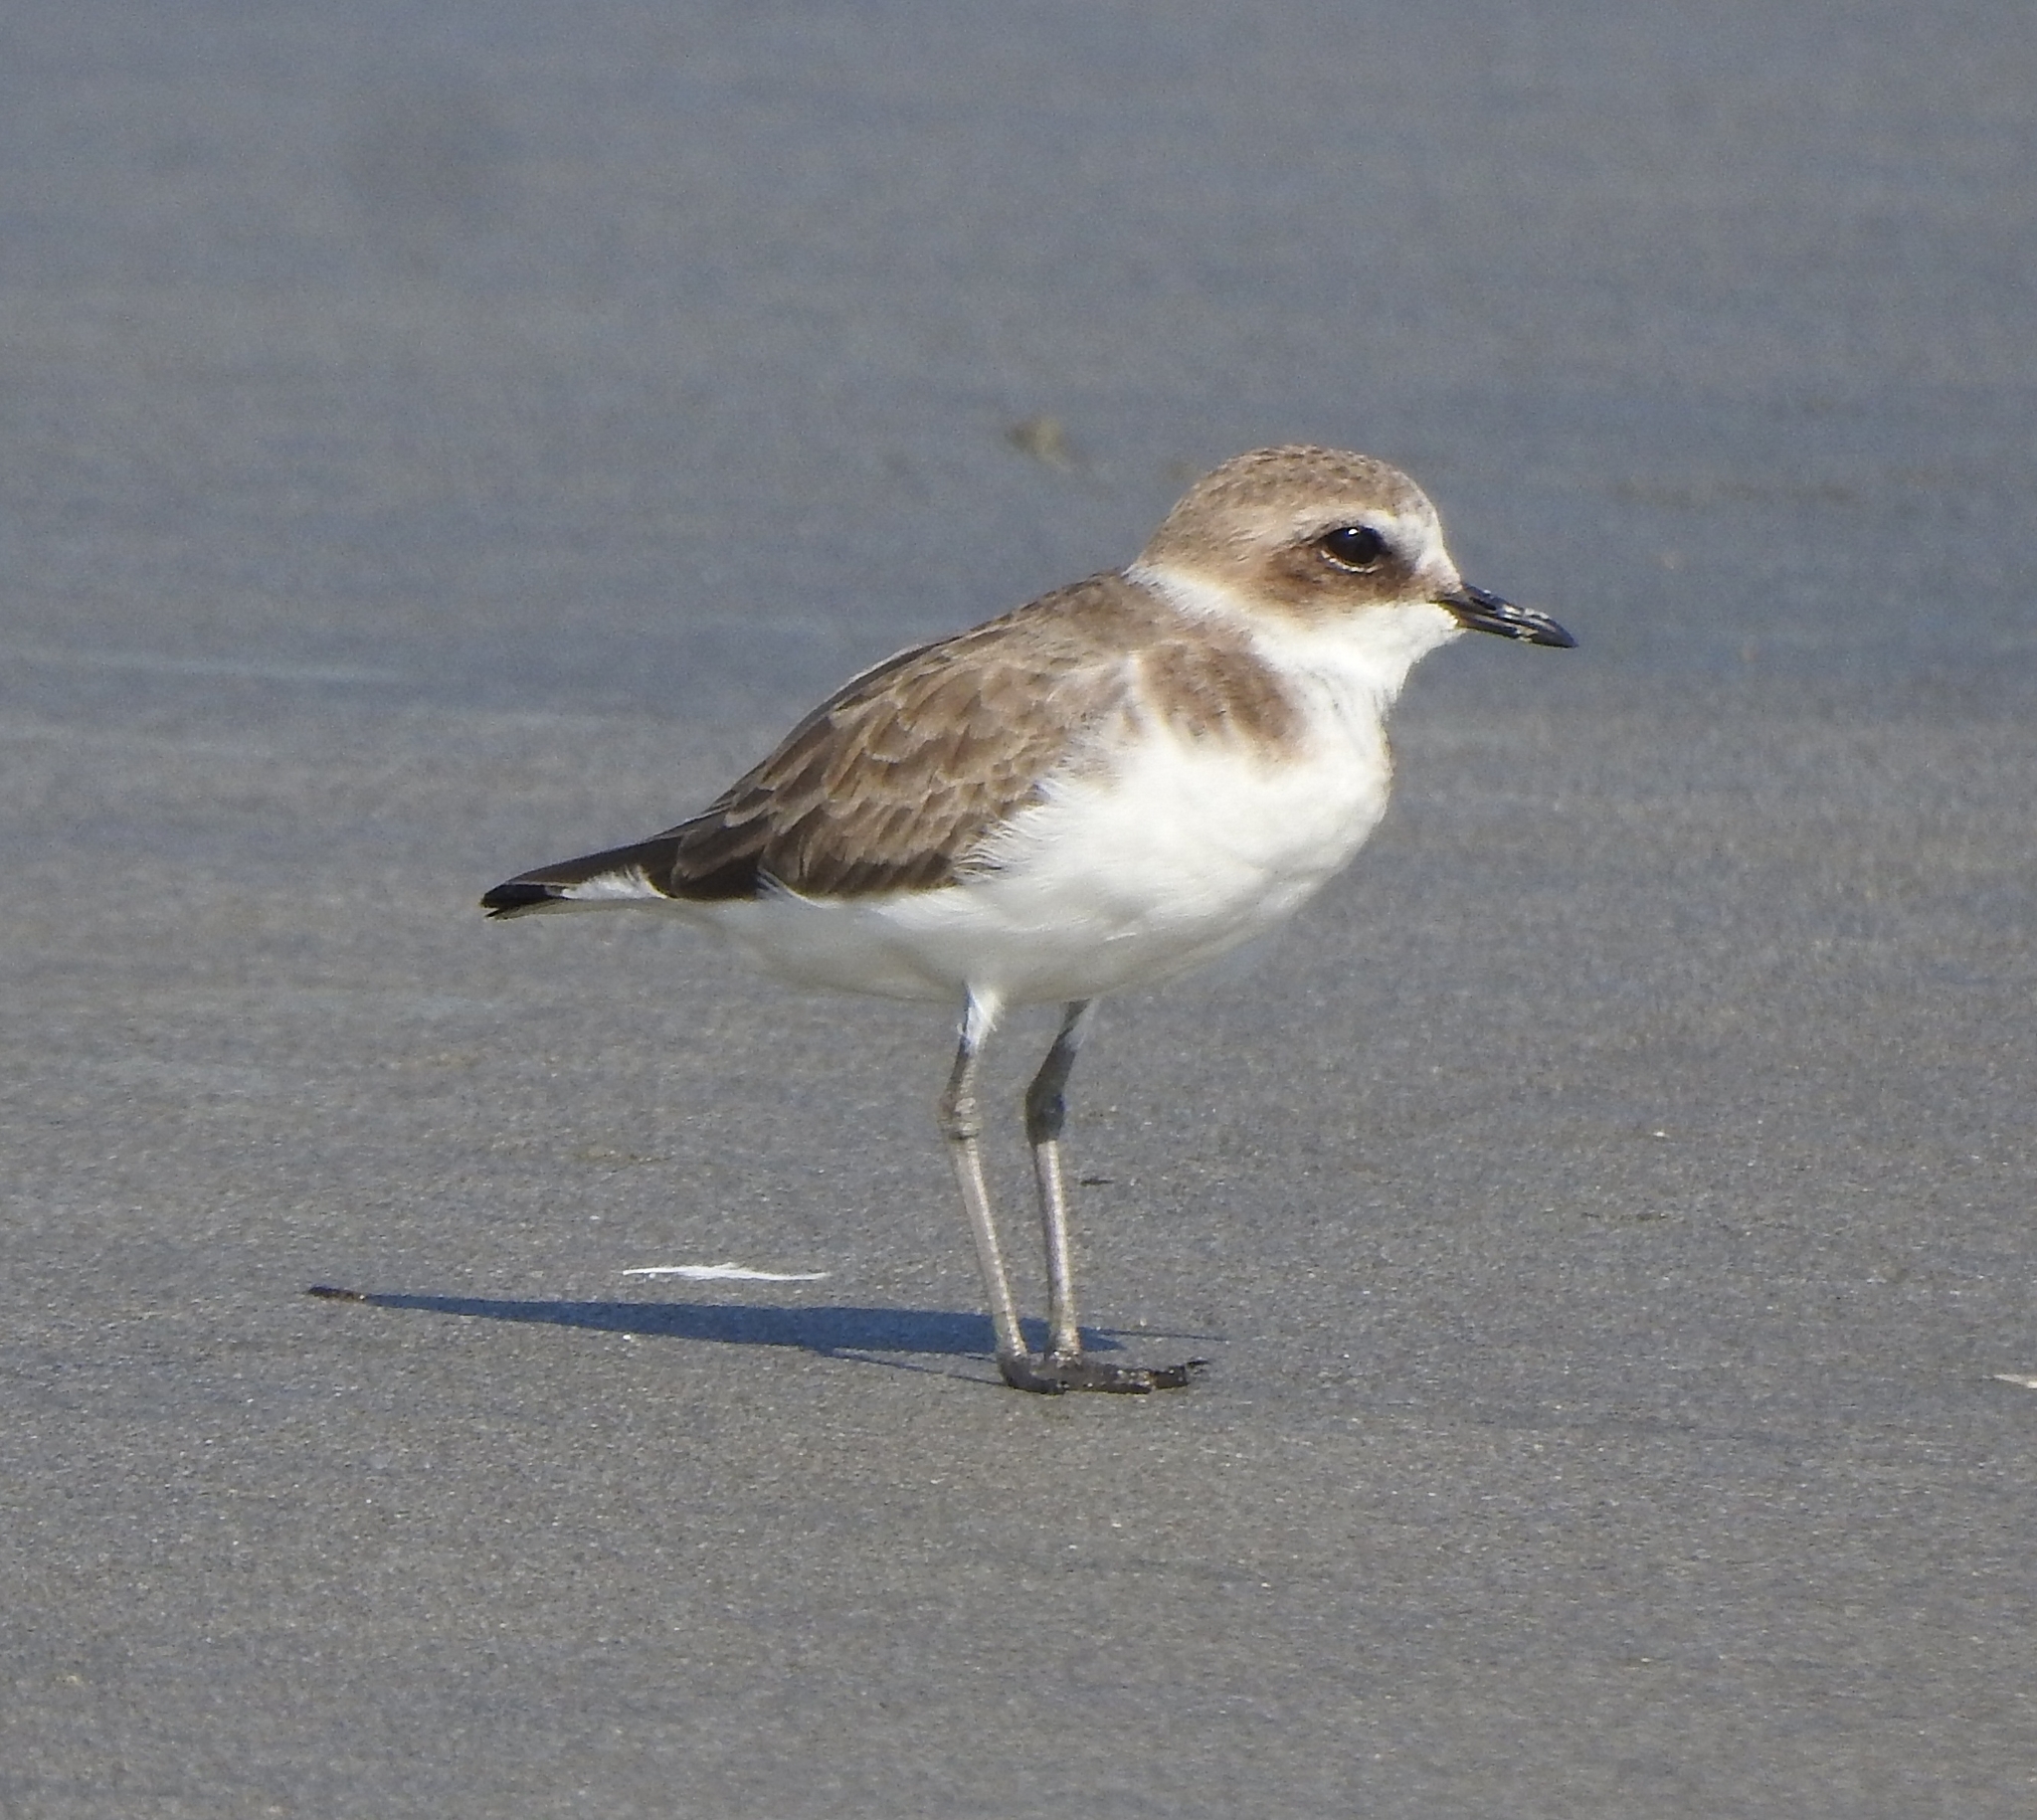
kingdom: Animalia
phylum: Chordata
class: Aves
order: Charadriiformes
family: Charadriidae
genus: Charadrius
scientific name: Charadrius alexandrinus
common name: Kentish plover
